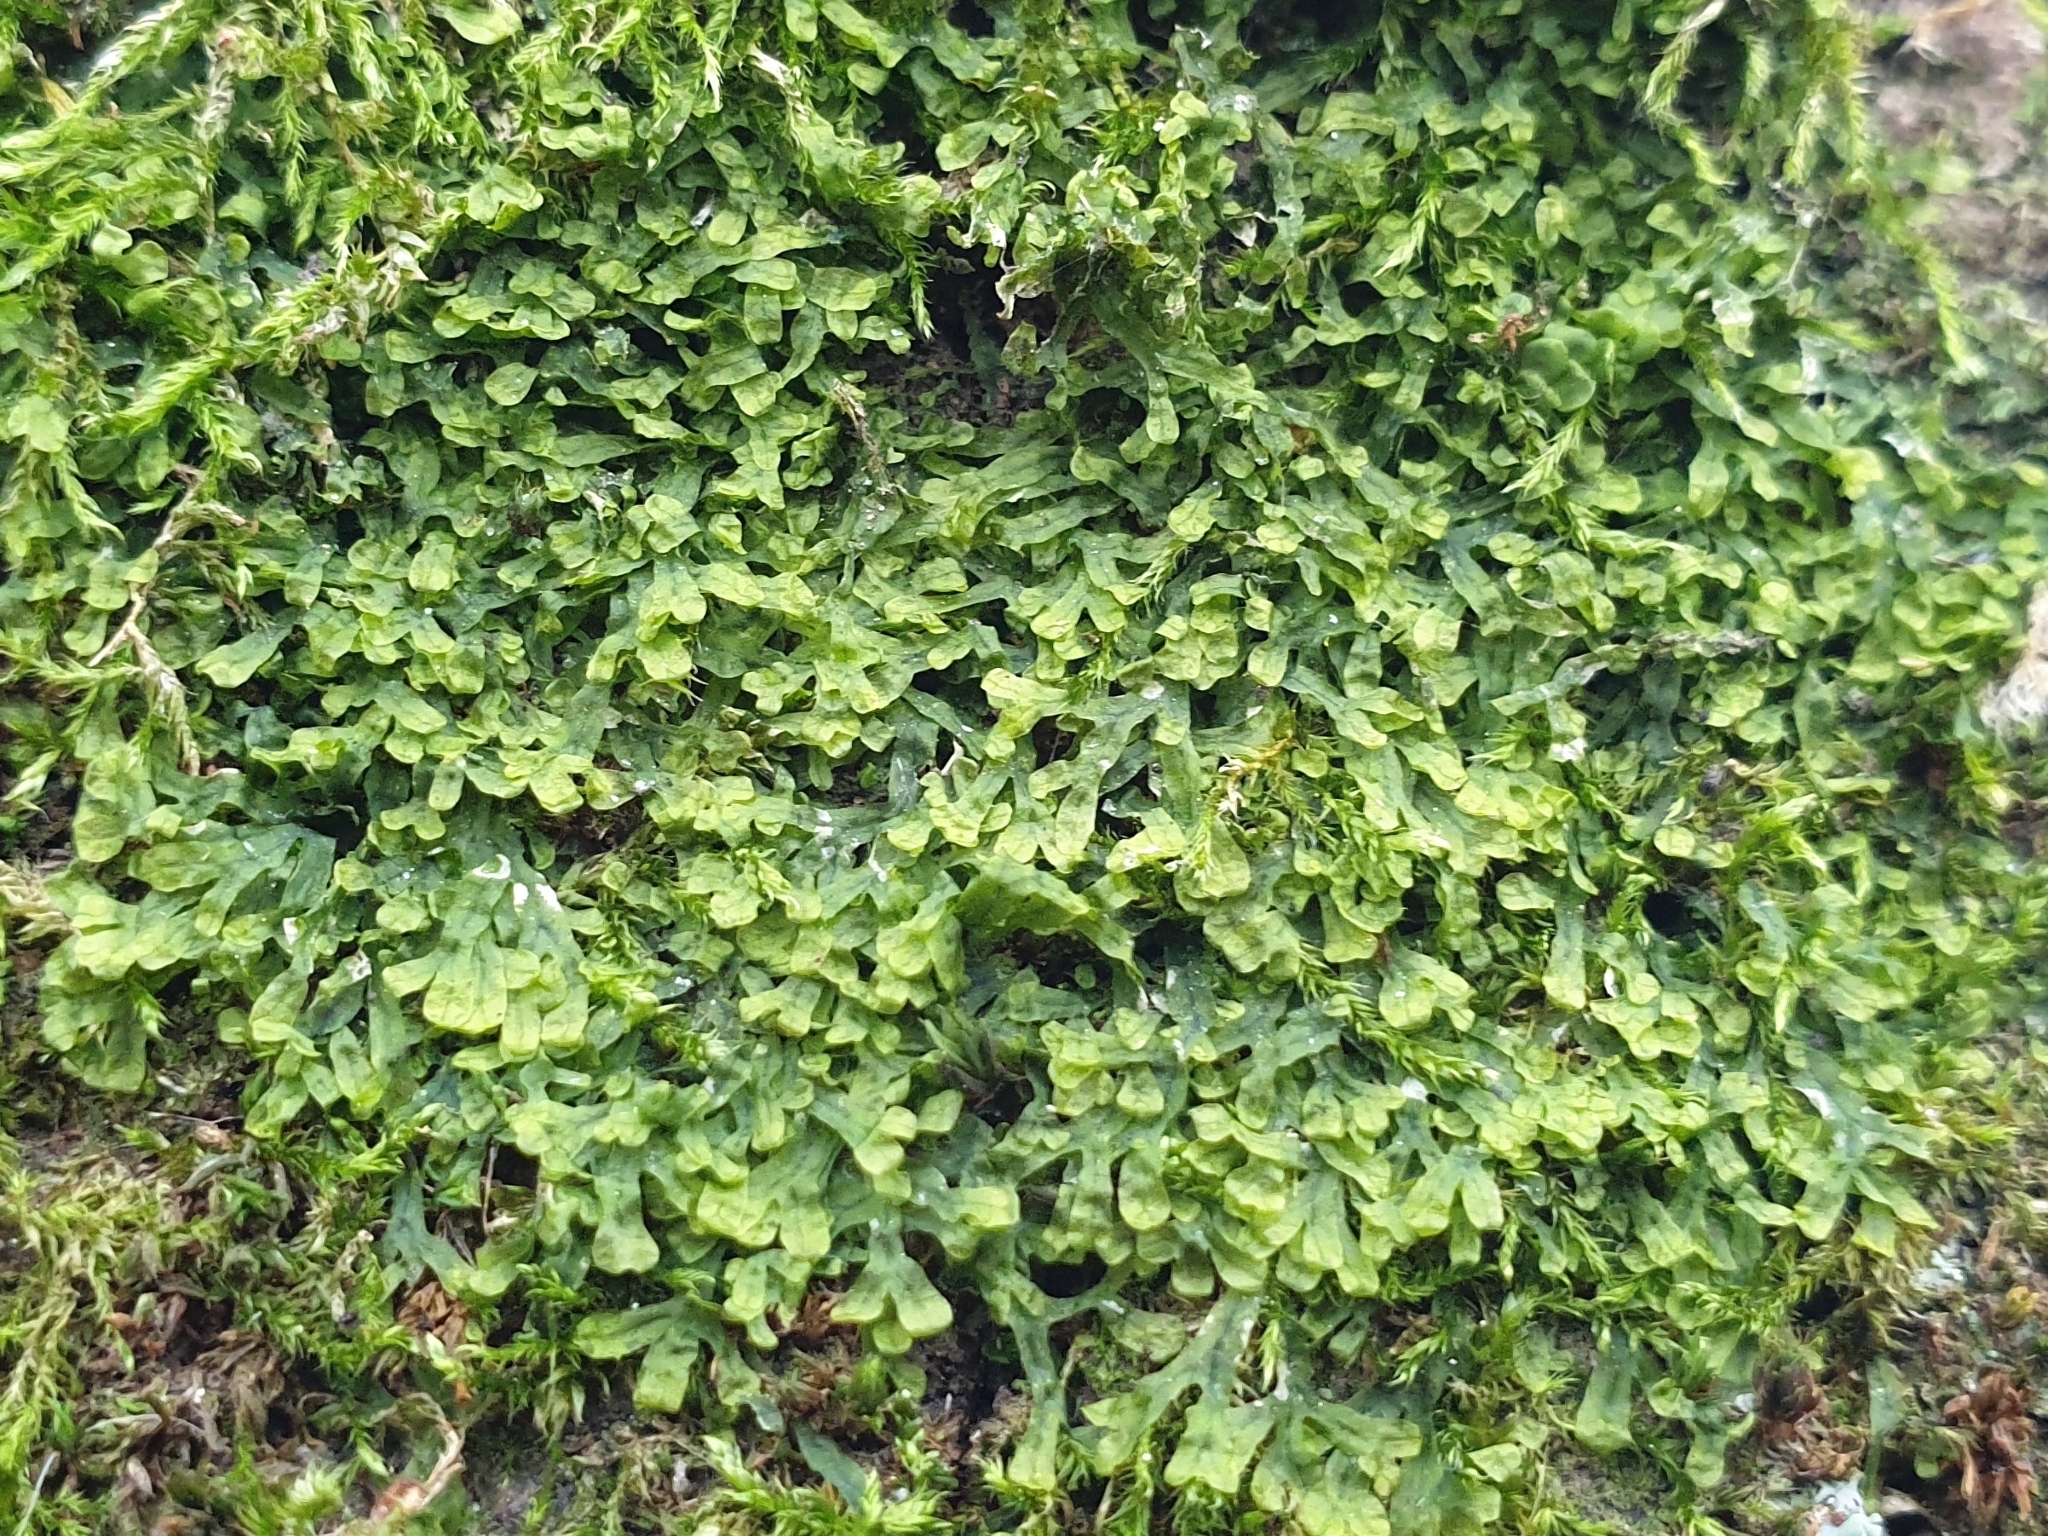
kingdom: Plantae
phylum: Marchantiophyta
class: Jungermanniopsida
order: Metzgeriales
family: Metzgeriaceae
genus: Metzgeria
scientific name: Metzgeria furcata
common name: Forked veilwort
